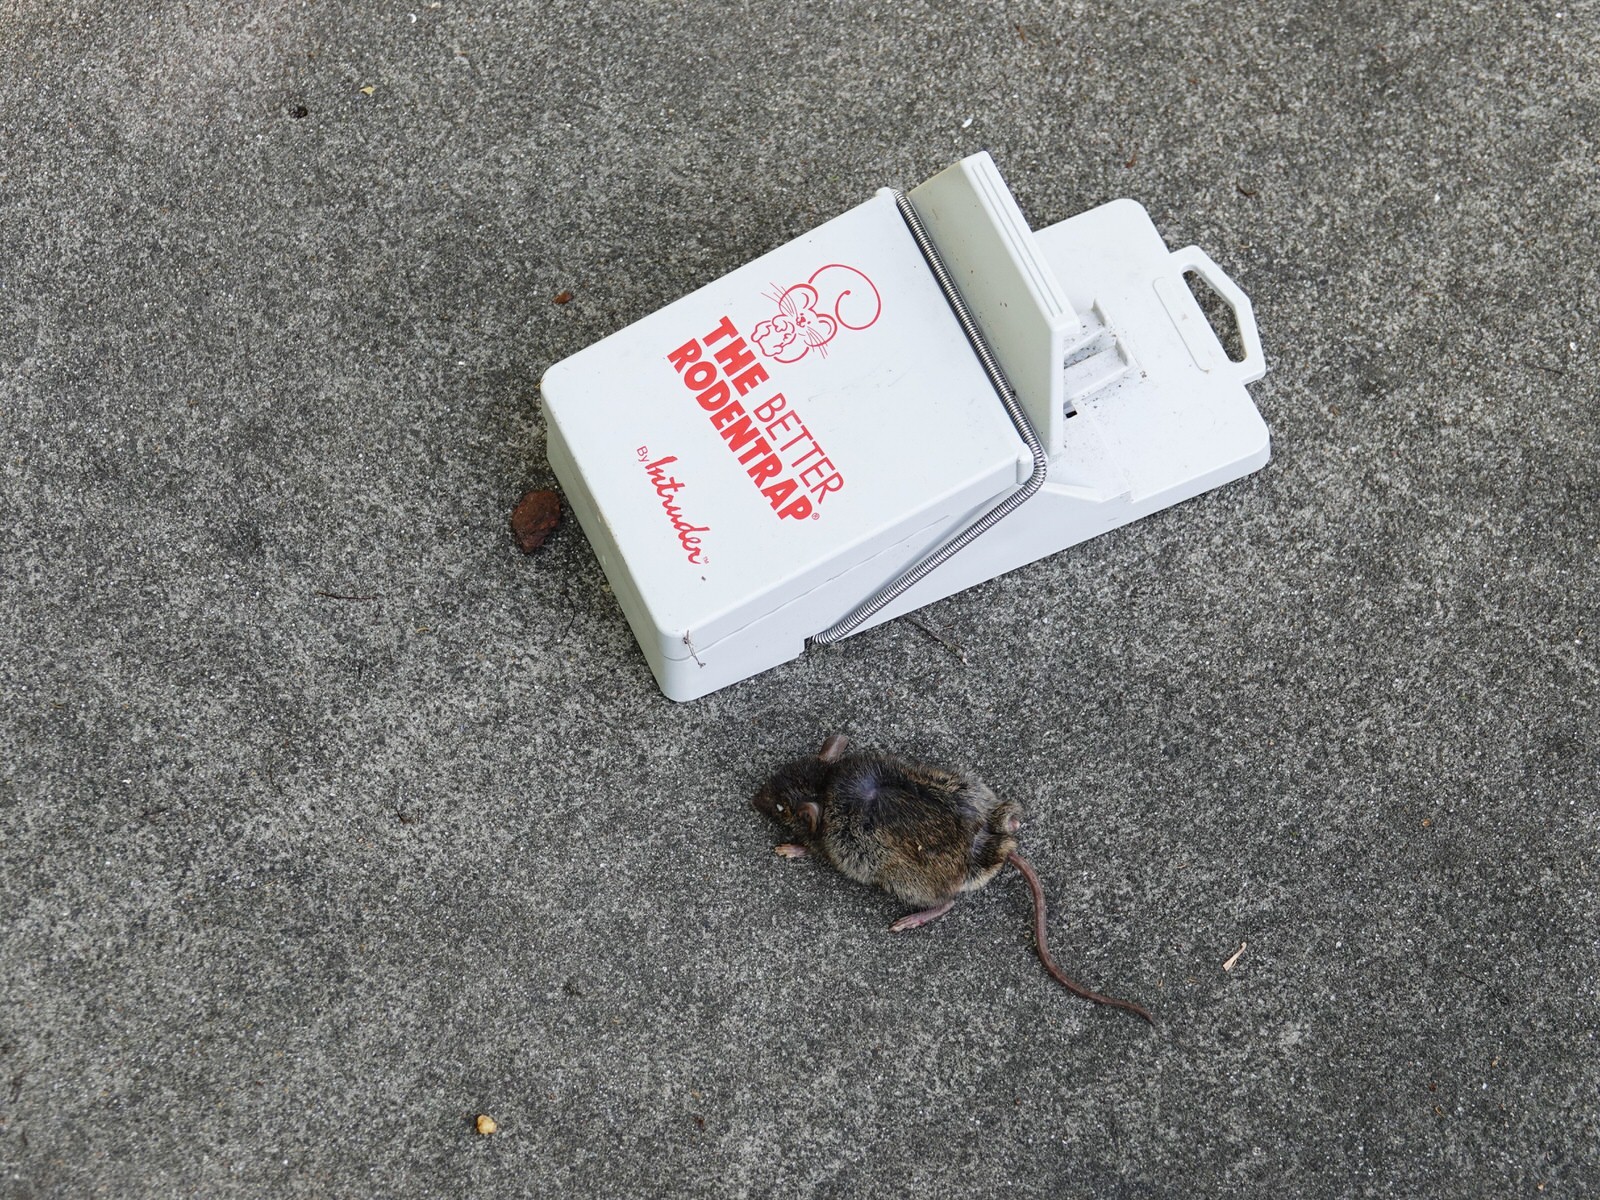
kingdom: Animalia
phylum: Chordata
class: Mammalia
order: Rodentia
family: Muridae
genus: Mus
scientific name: Mus musculus
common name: House mouse
